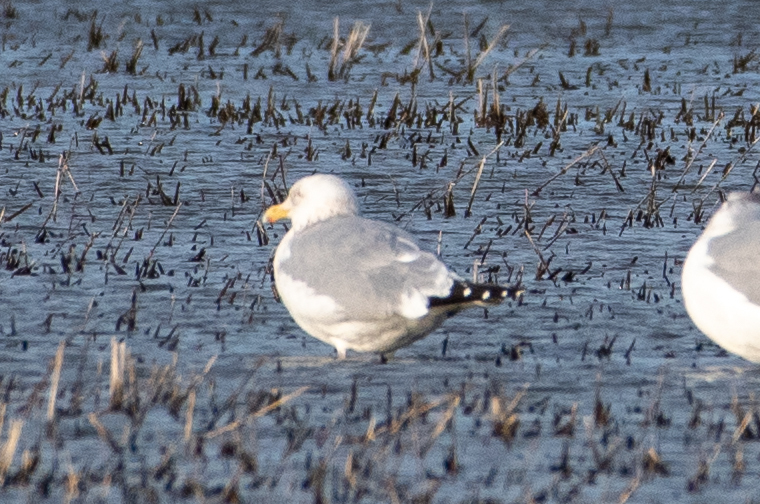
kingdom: Animalia
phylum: Chordata
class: Aves
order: Charadriiformes
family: Laridae
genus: Larus
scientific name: Larus argentatus
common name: Herring gull
